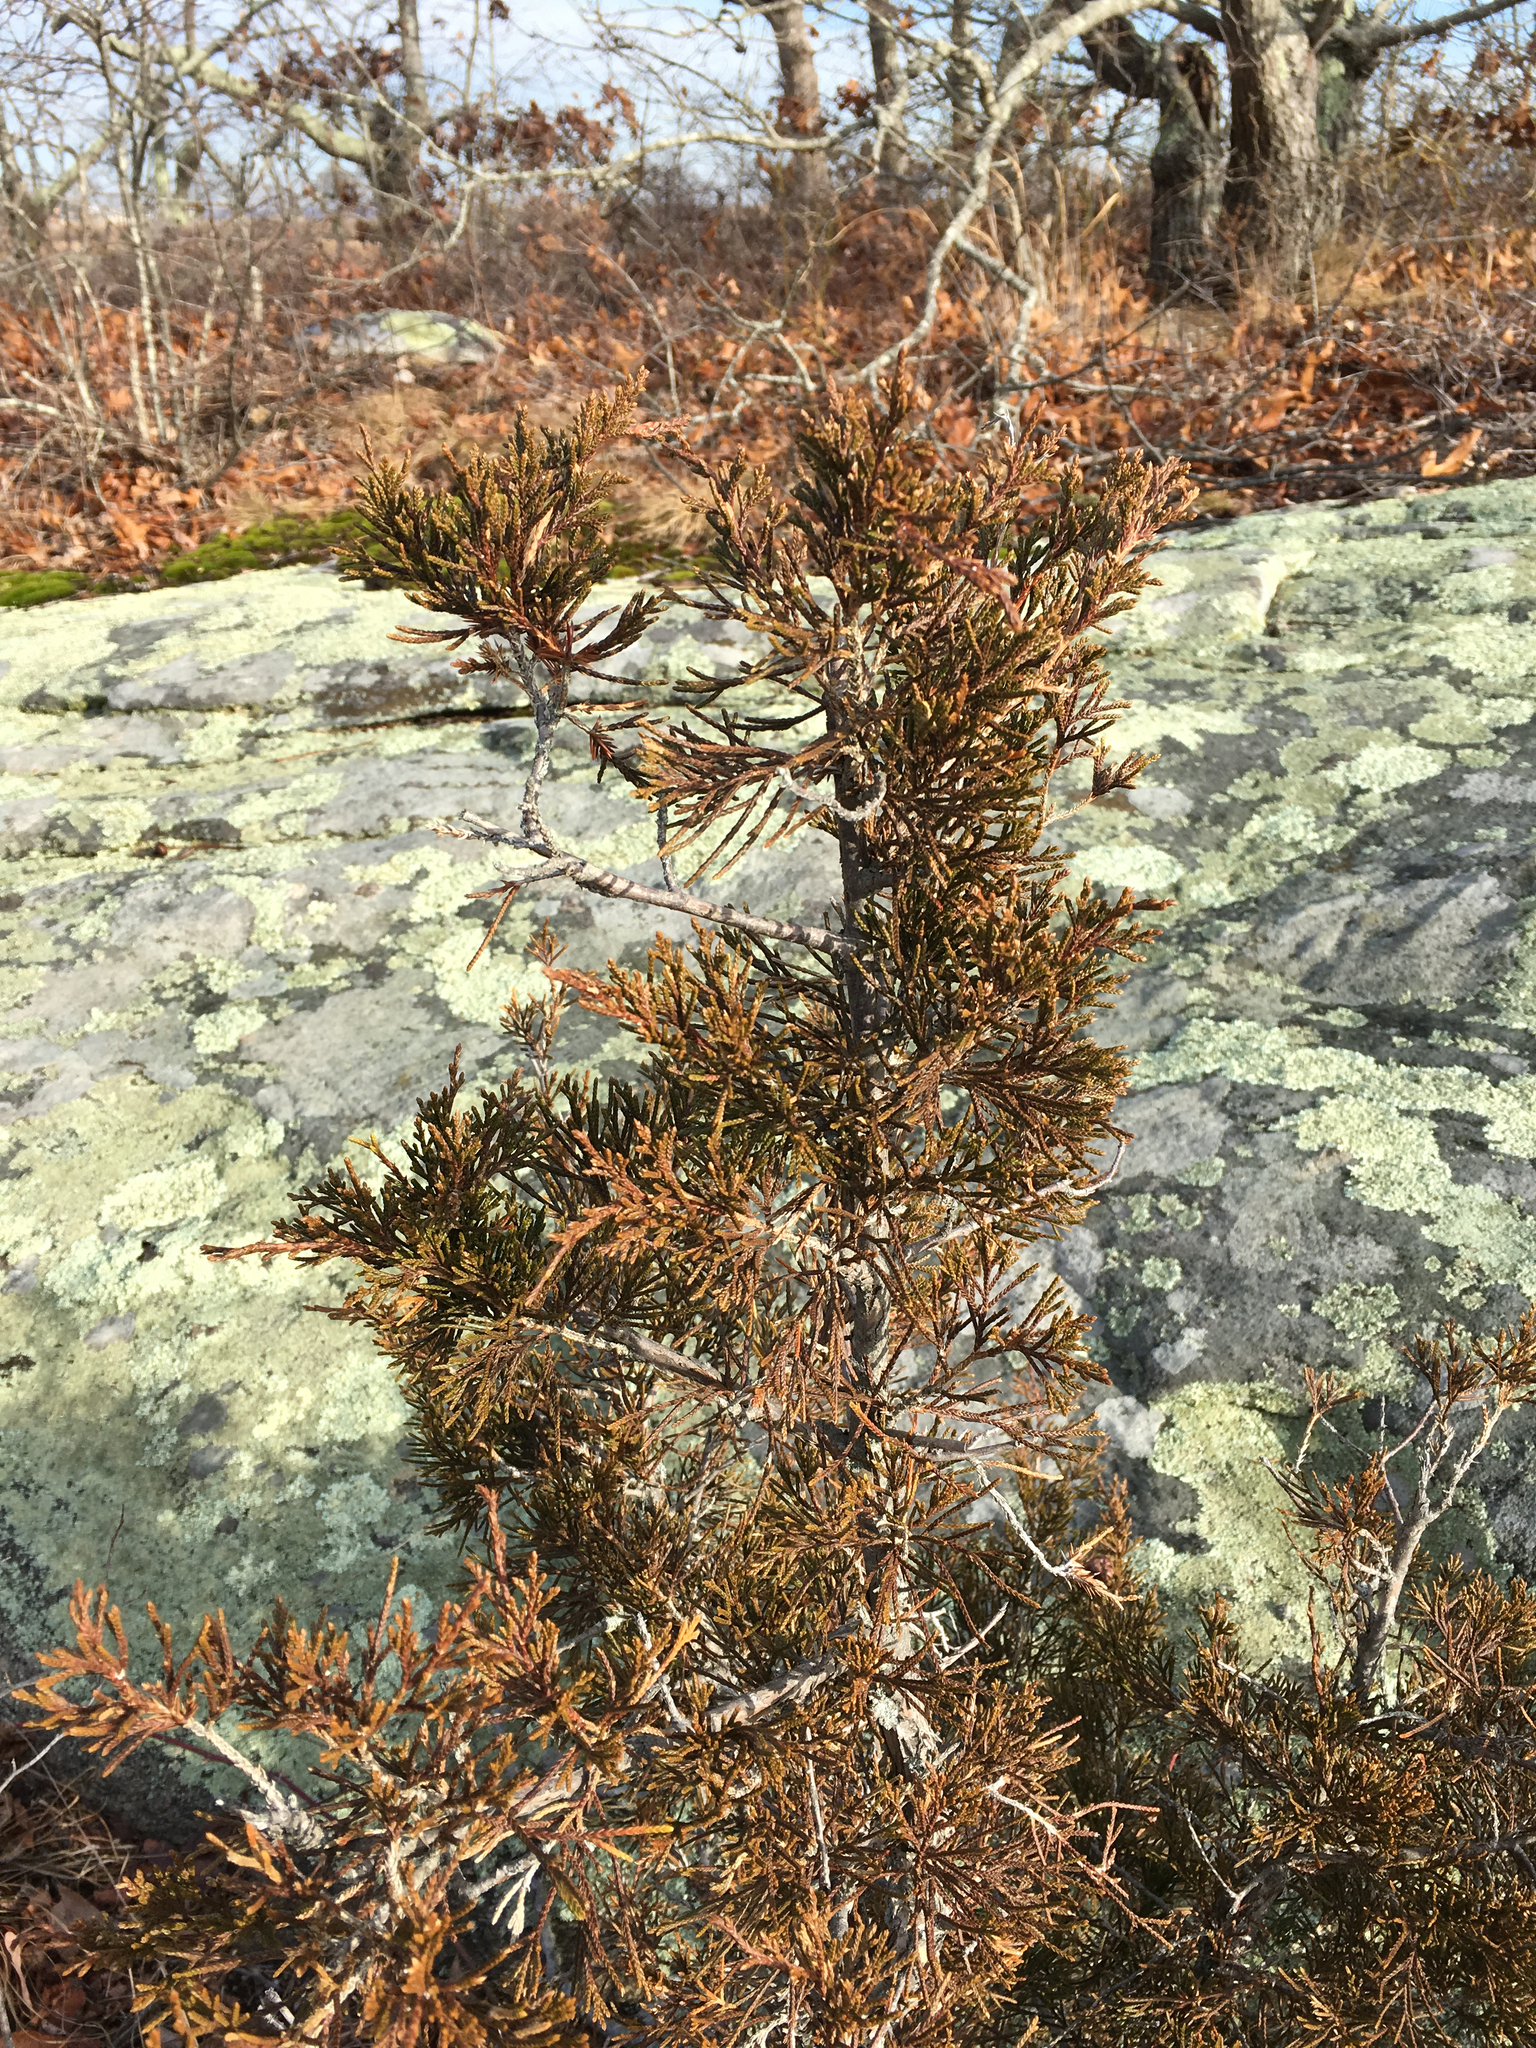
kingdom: Plantae
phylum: Tracheophyta
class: Pinopsida
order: Pinales
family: Cupressaceae
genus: Juniperus
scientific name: Juniperus virginiana
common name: Red juniper
